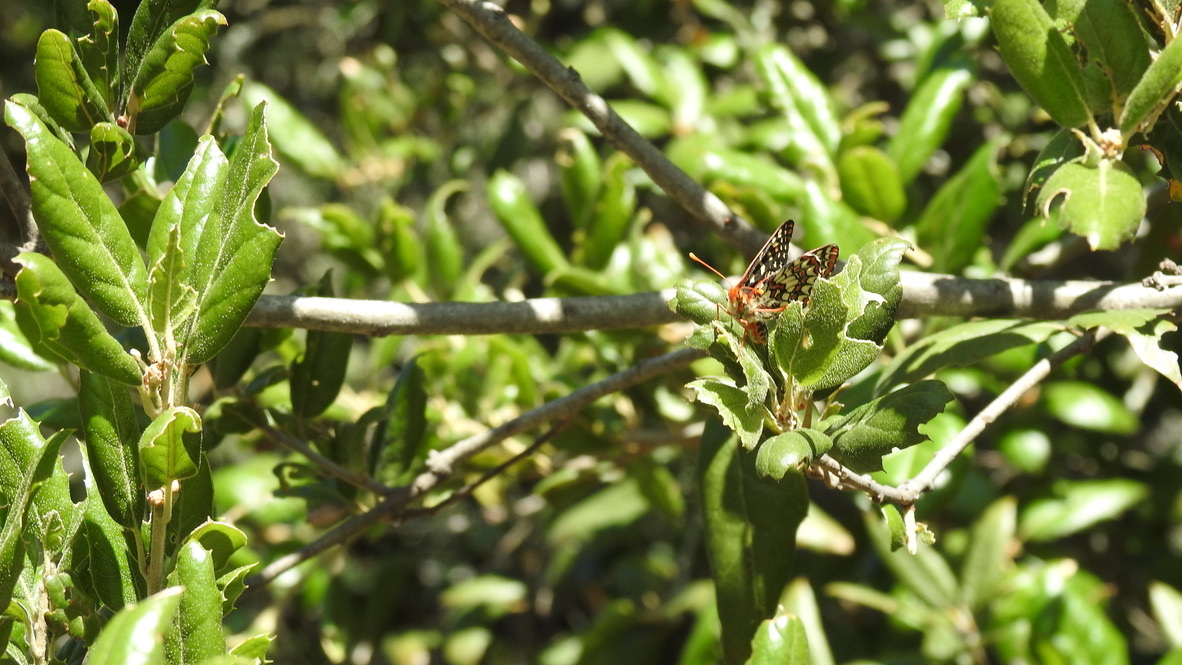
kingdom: Animalia
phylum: Arthropoda
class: Insecta
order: Lepidoptera
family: Nymphalidae
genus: Occidryas
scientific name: Occidryas chalcedona
